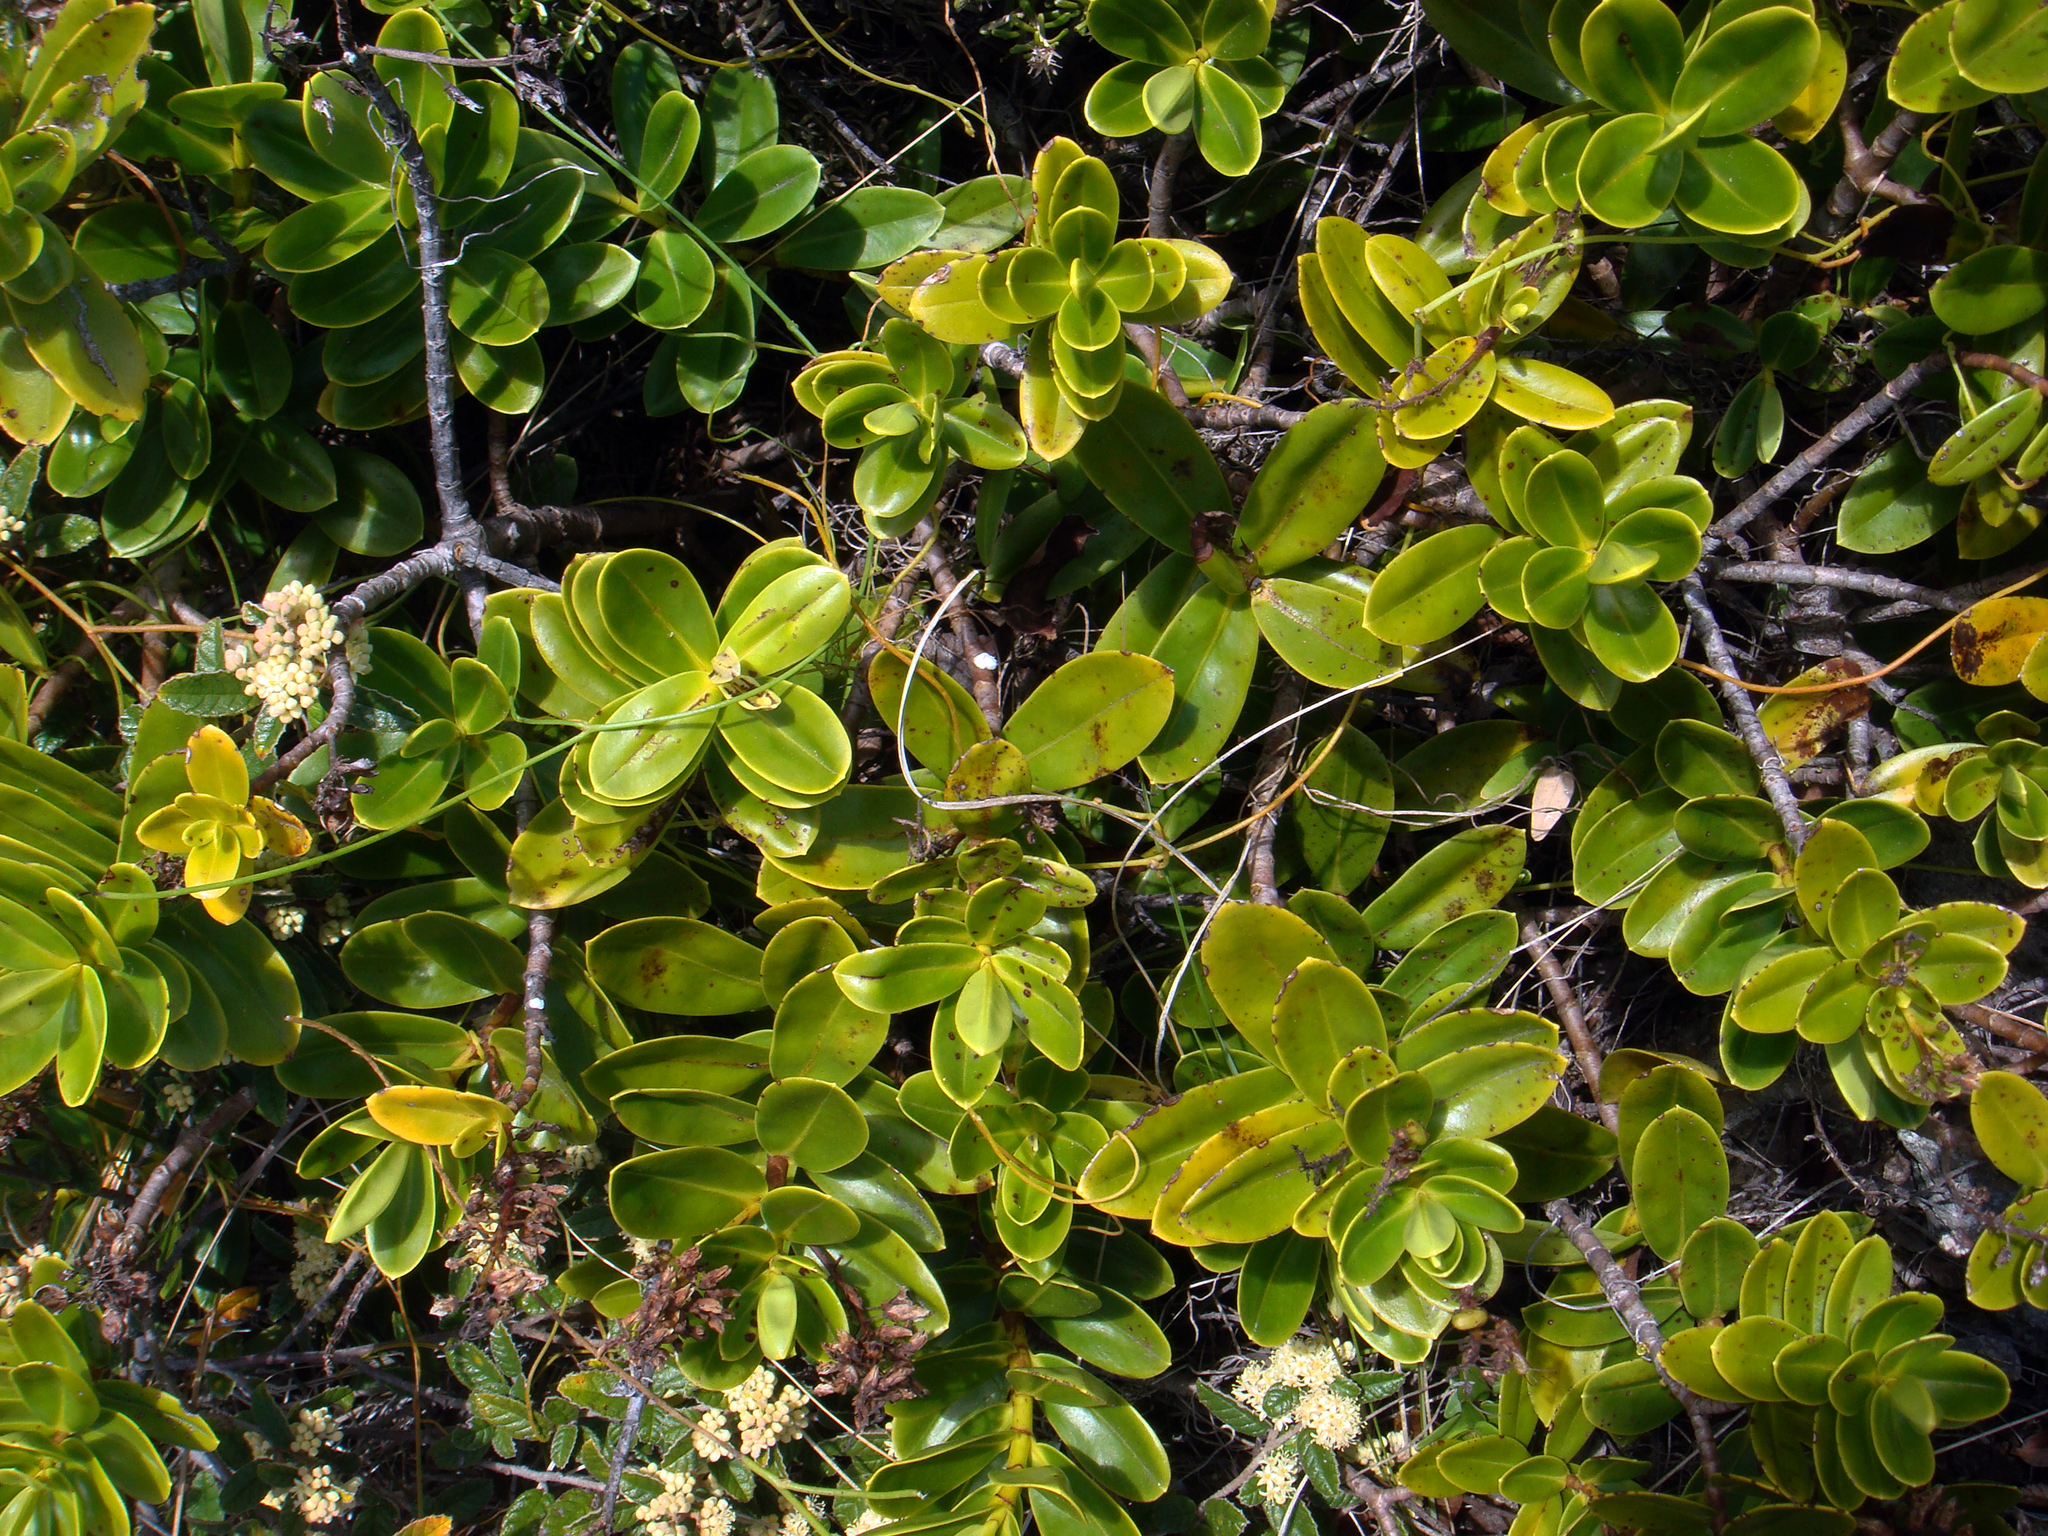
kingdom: Plantae
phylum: Tracheophyta
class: Magnoliopsida
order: Lamiales
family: Plantaginaceae
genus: Veronica
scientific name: Veronica punicea
